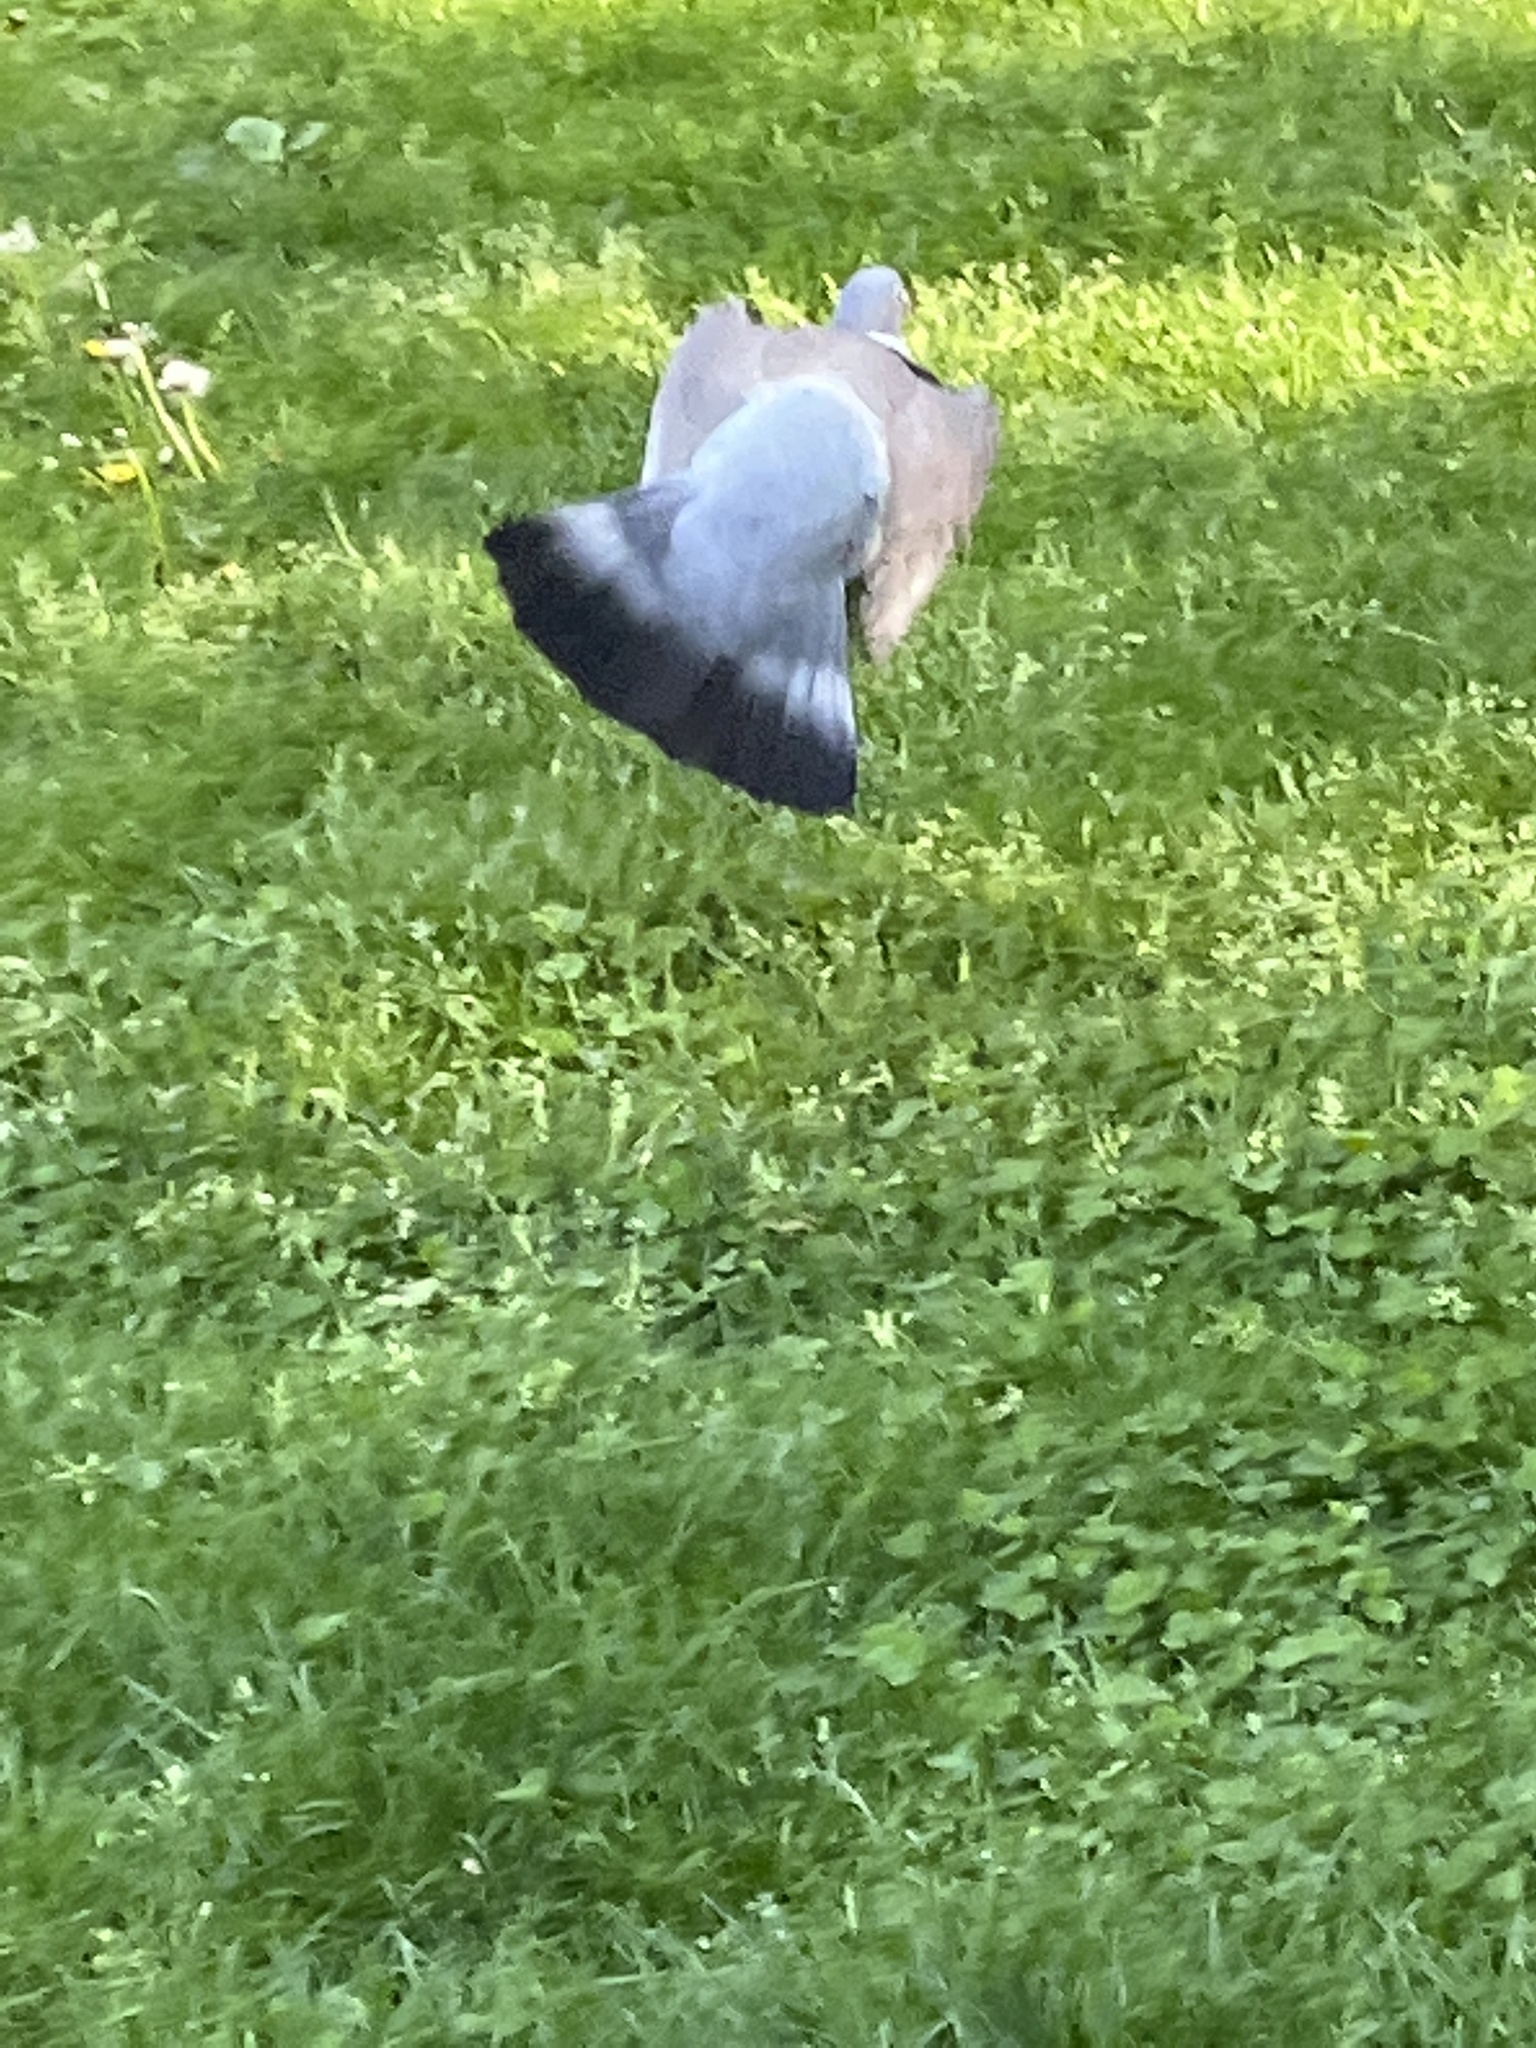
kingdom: Animalia
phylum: Chordata
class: Aves
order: Columbiformes
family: Columbidae
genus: Columba
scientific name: Columba palumbus
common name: Common wood pigeon
